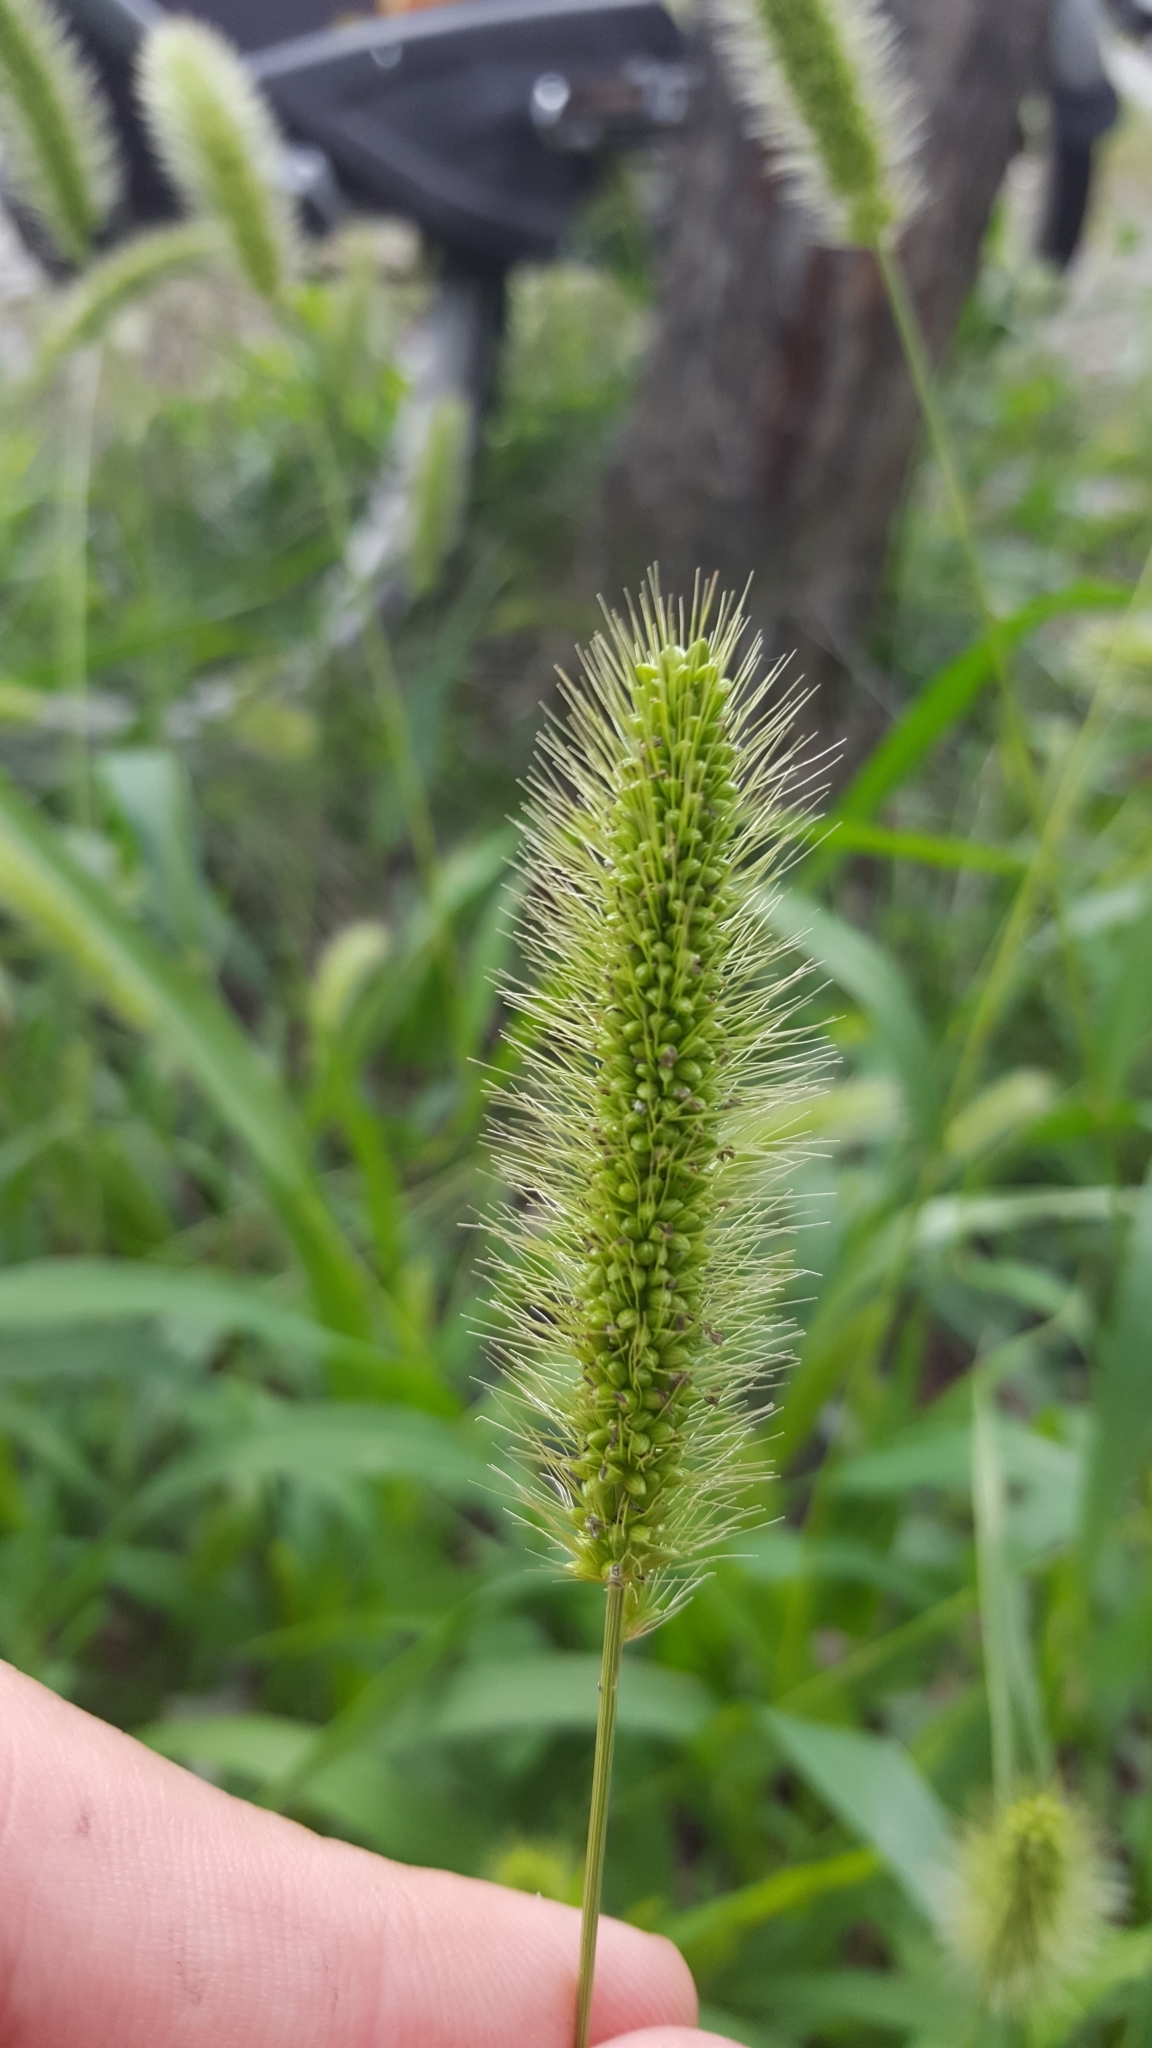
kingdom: Plantae
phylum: Tracheophyta
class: Liliopsida
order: Poales
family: Poaceae
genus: Setaria
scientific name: Setaria viridis
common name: Green bristlegrass
